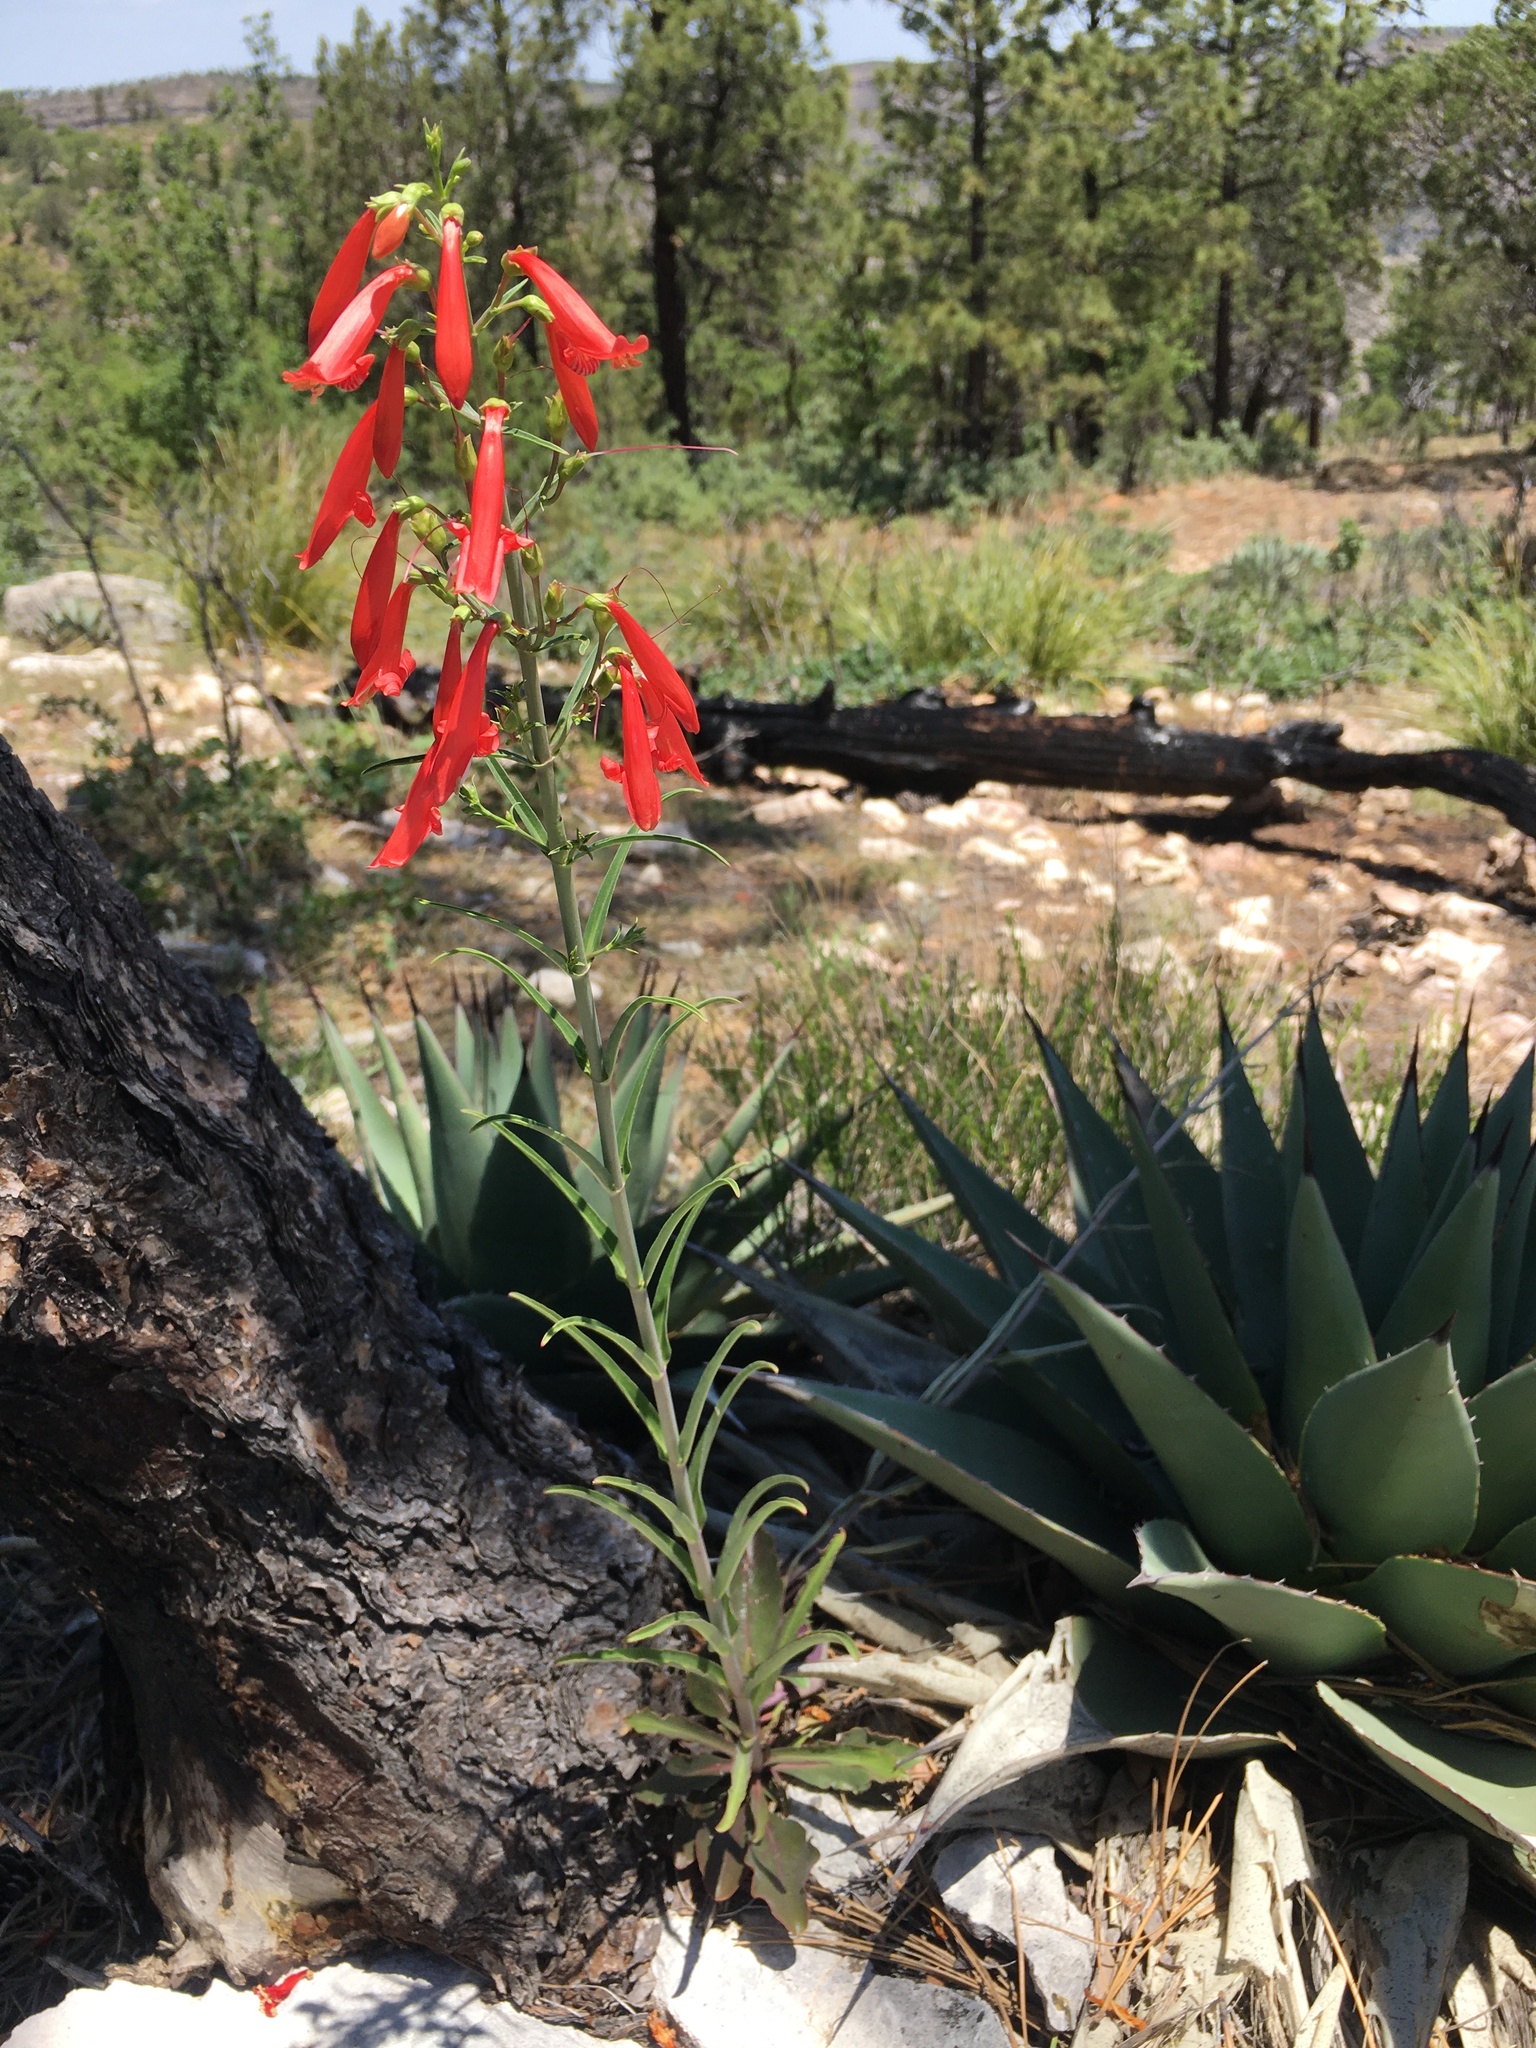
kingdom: Plantae
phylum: Tracheophyta
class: Magnoliopsida
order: Lamiales
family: Plantaginaceae
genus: Penstemon
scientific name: Penstemon barbatus
